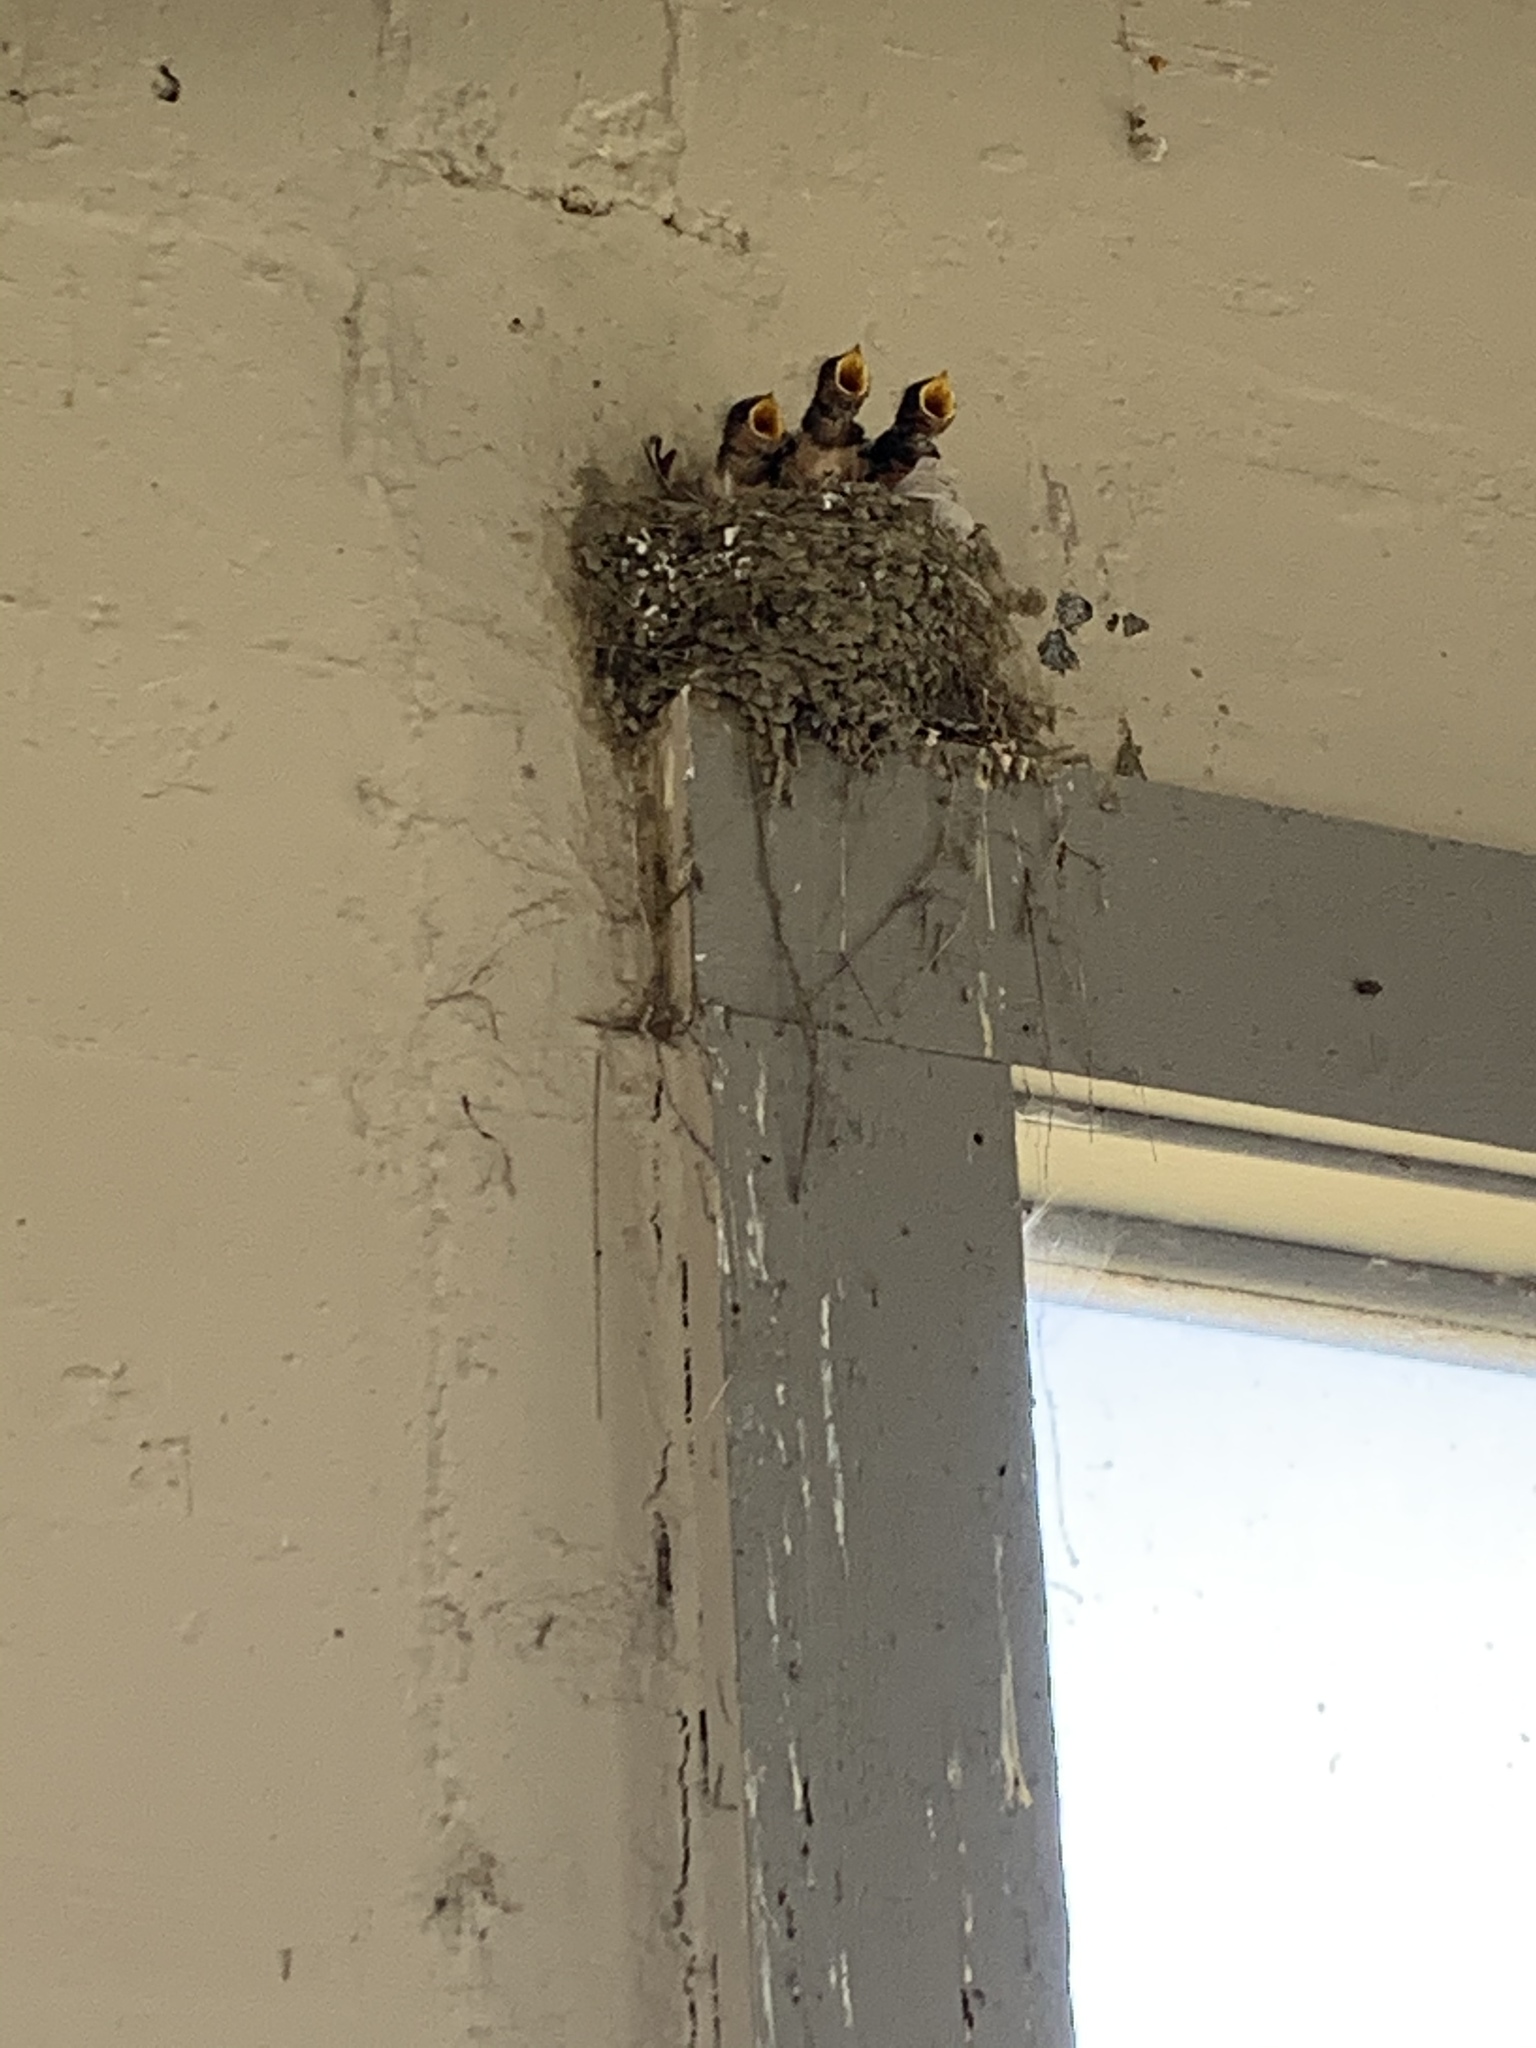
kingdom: Animalia
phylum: Chordata
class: Aves
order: Passeriformes
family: Hirundinidae
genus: Hirundo
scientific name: Hirundo rustica
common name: Barn swallow
